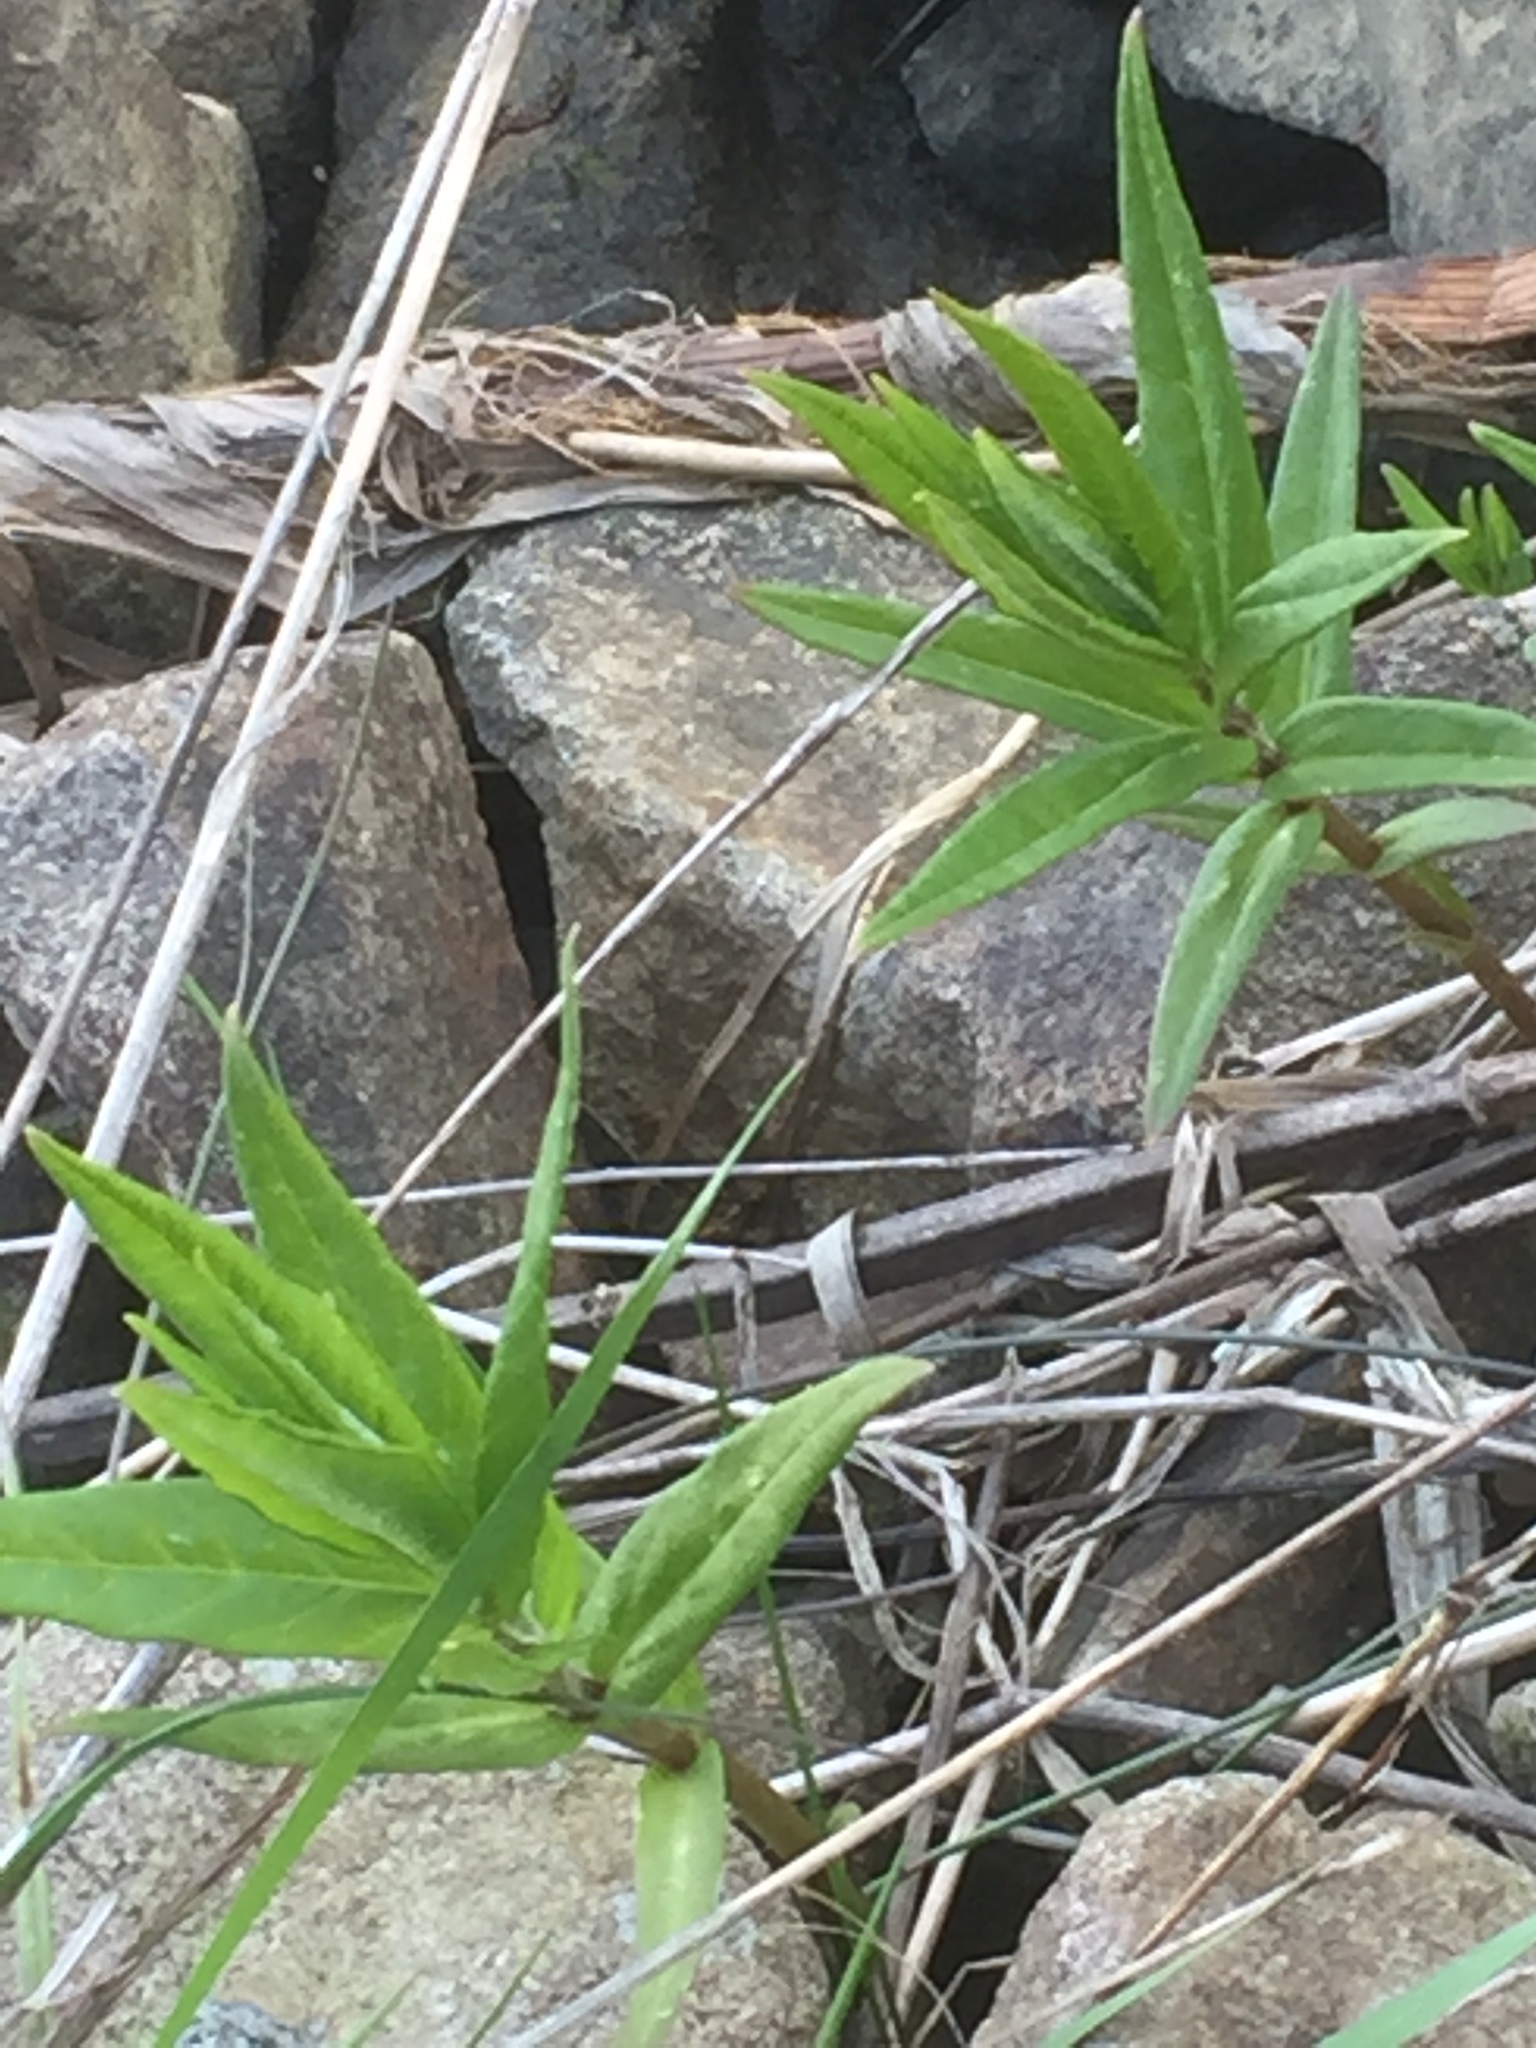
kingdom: Plantae
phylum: Tracheophyta
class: Magnoliopsida
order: Ericales
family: Primulaceae
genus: Lysimachia
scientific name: Lysimachia thyrsiflora
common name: Tufted loosestrife
